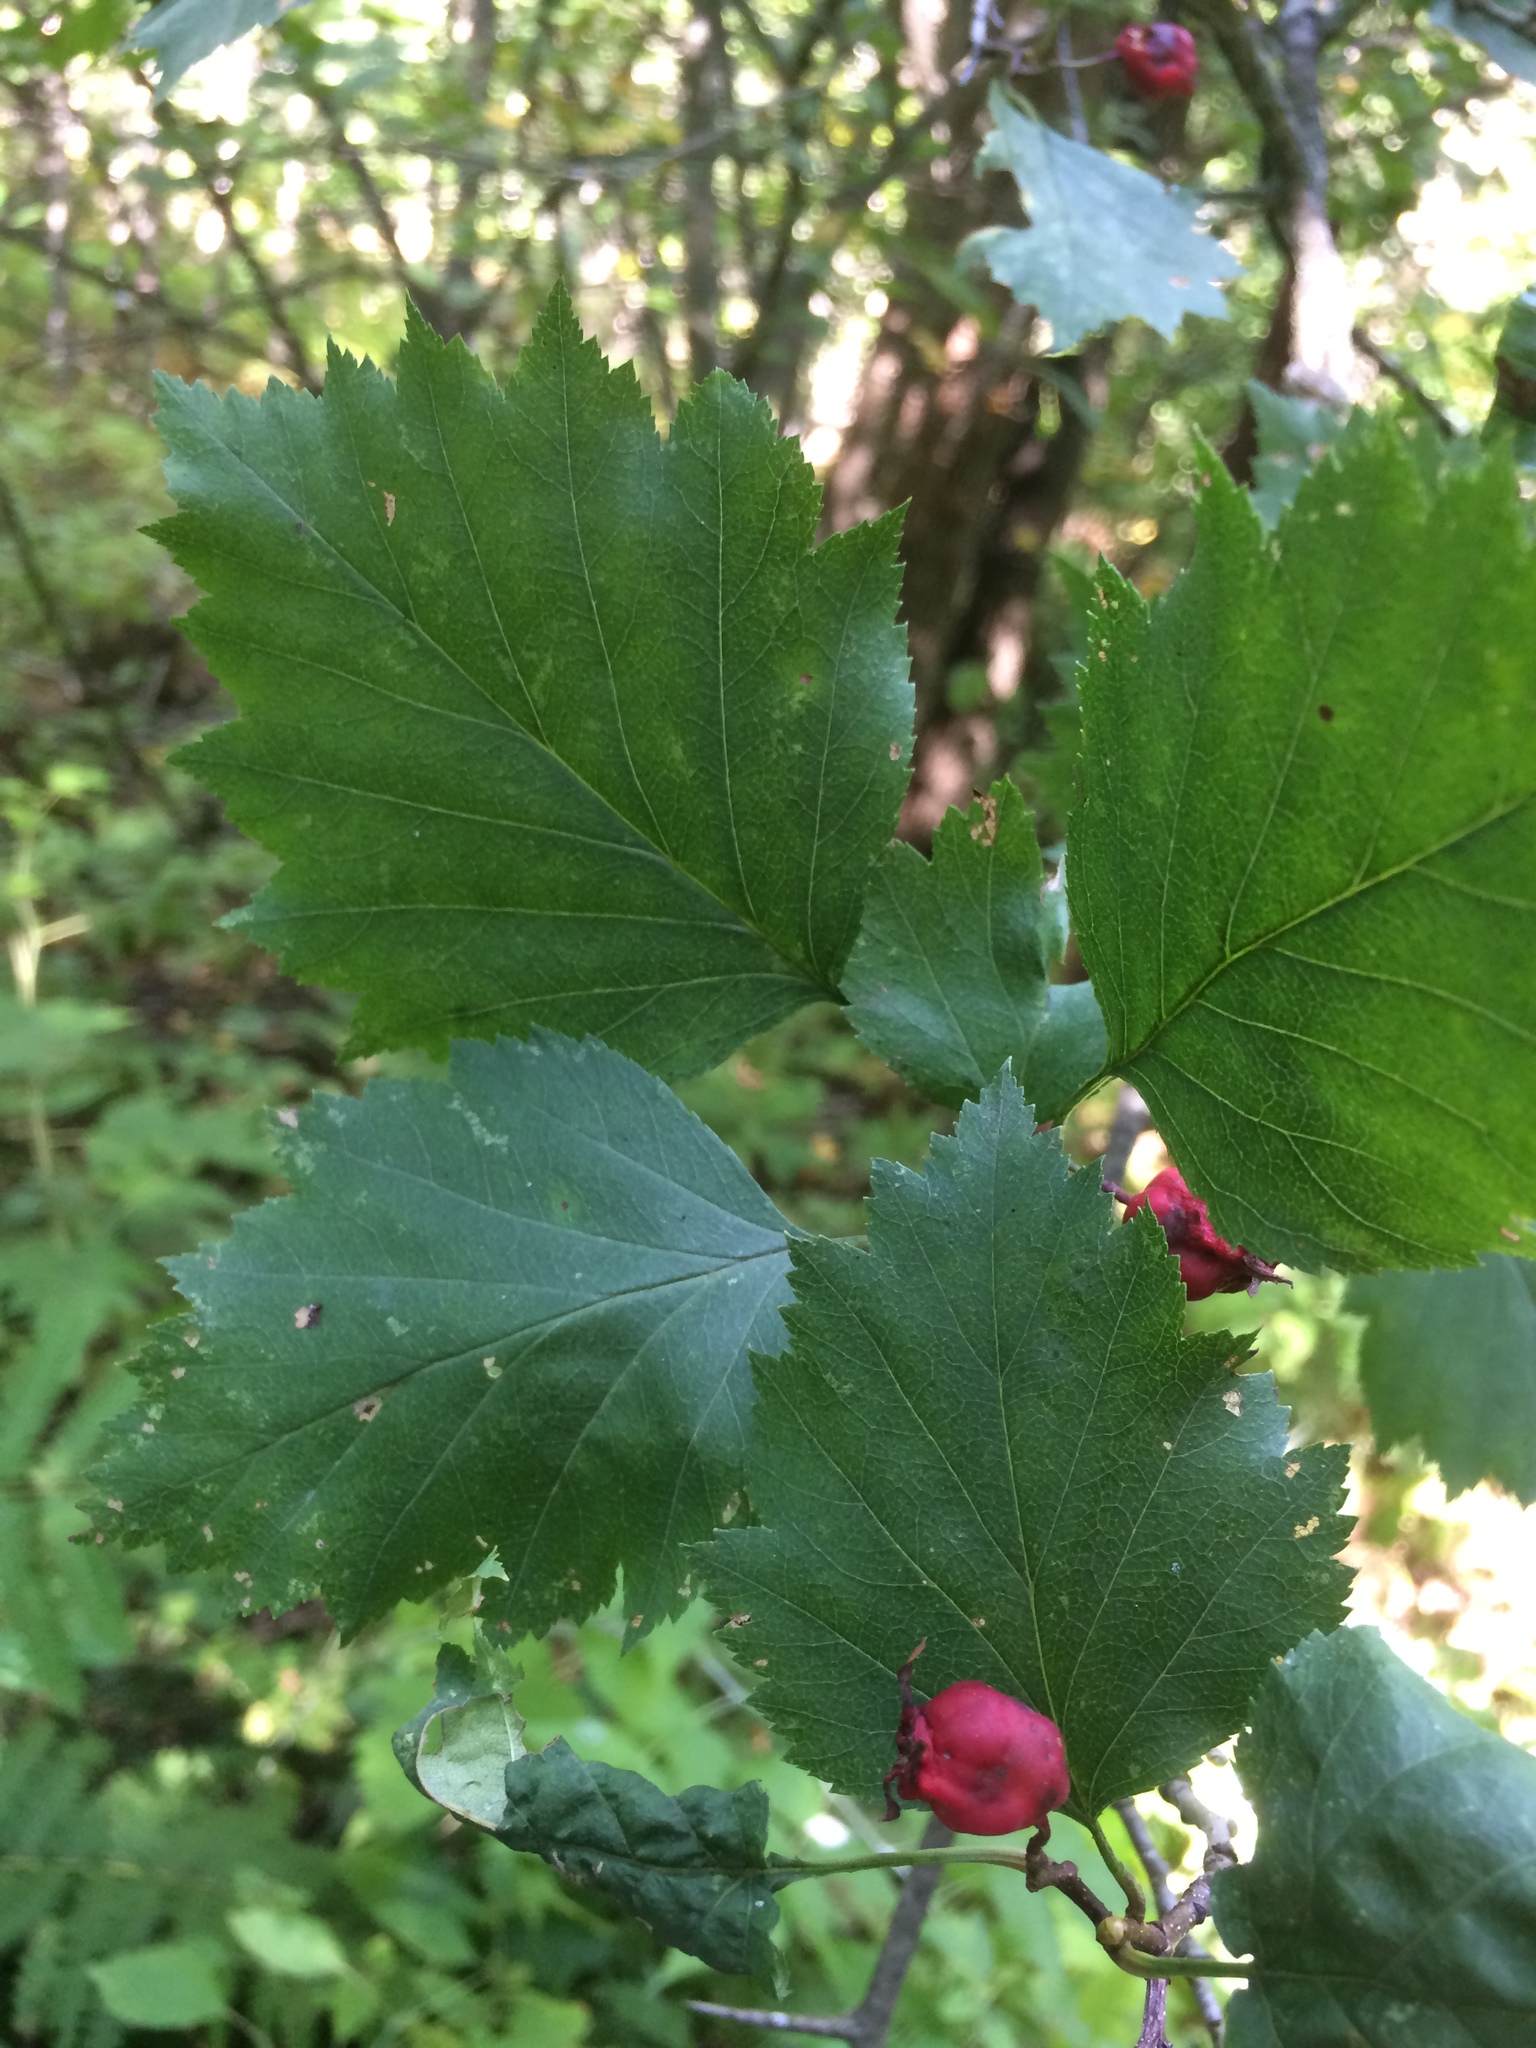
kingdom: Plantae
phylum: Tracheophyta
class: Magnoliopsida
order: Rosales
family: Rosaceae
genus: Crataegus
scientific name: Crataegus schuettei
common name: Schuette's hawthorn
